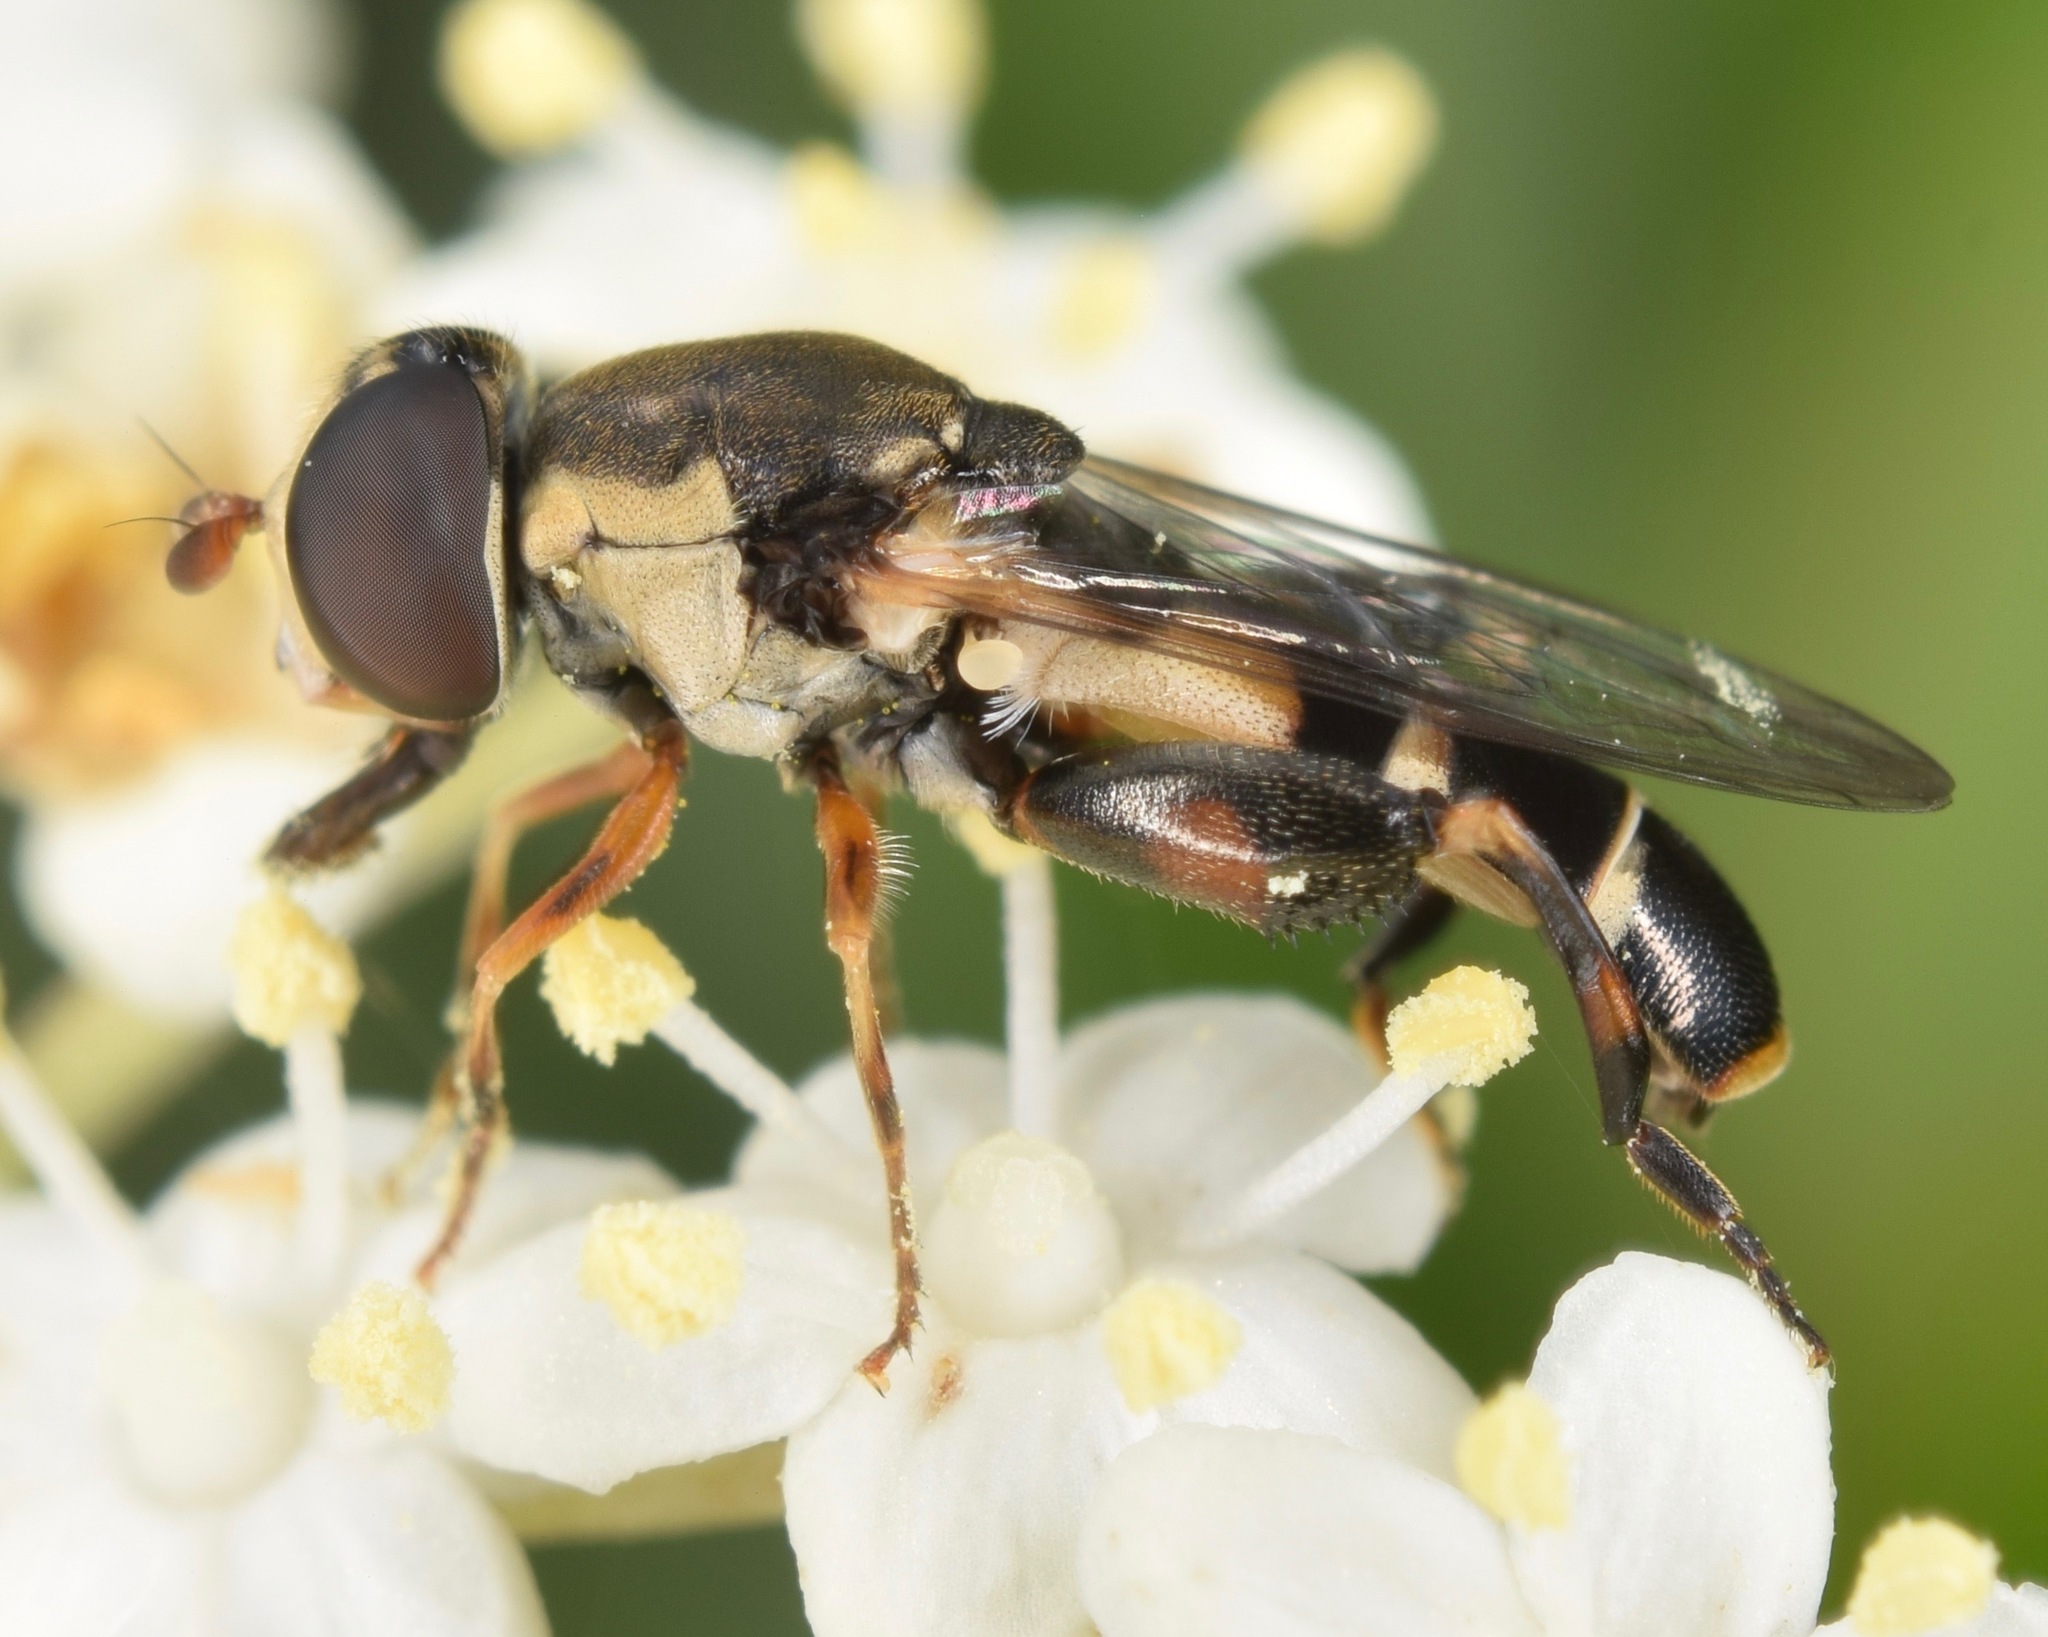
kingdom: Animalia
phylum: Arthropoda
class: Insecta
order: Diptera
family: Syrphidae
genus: Syritta
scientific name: Syritta pipiens
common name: Hover fly
